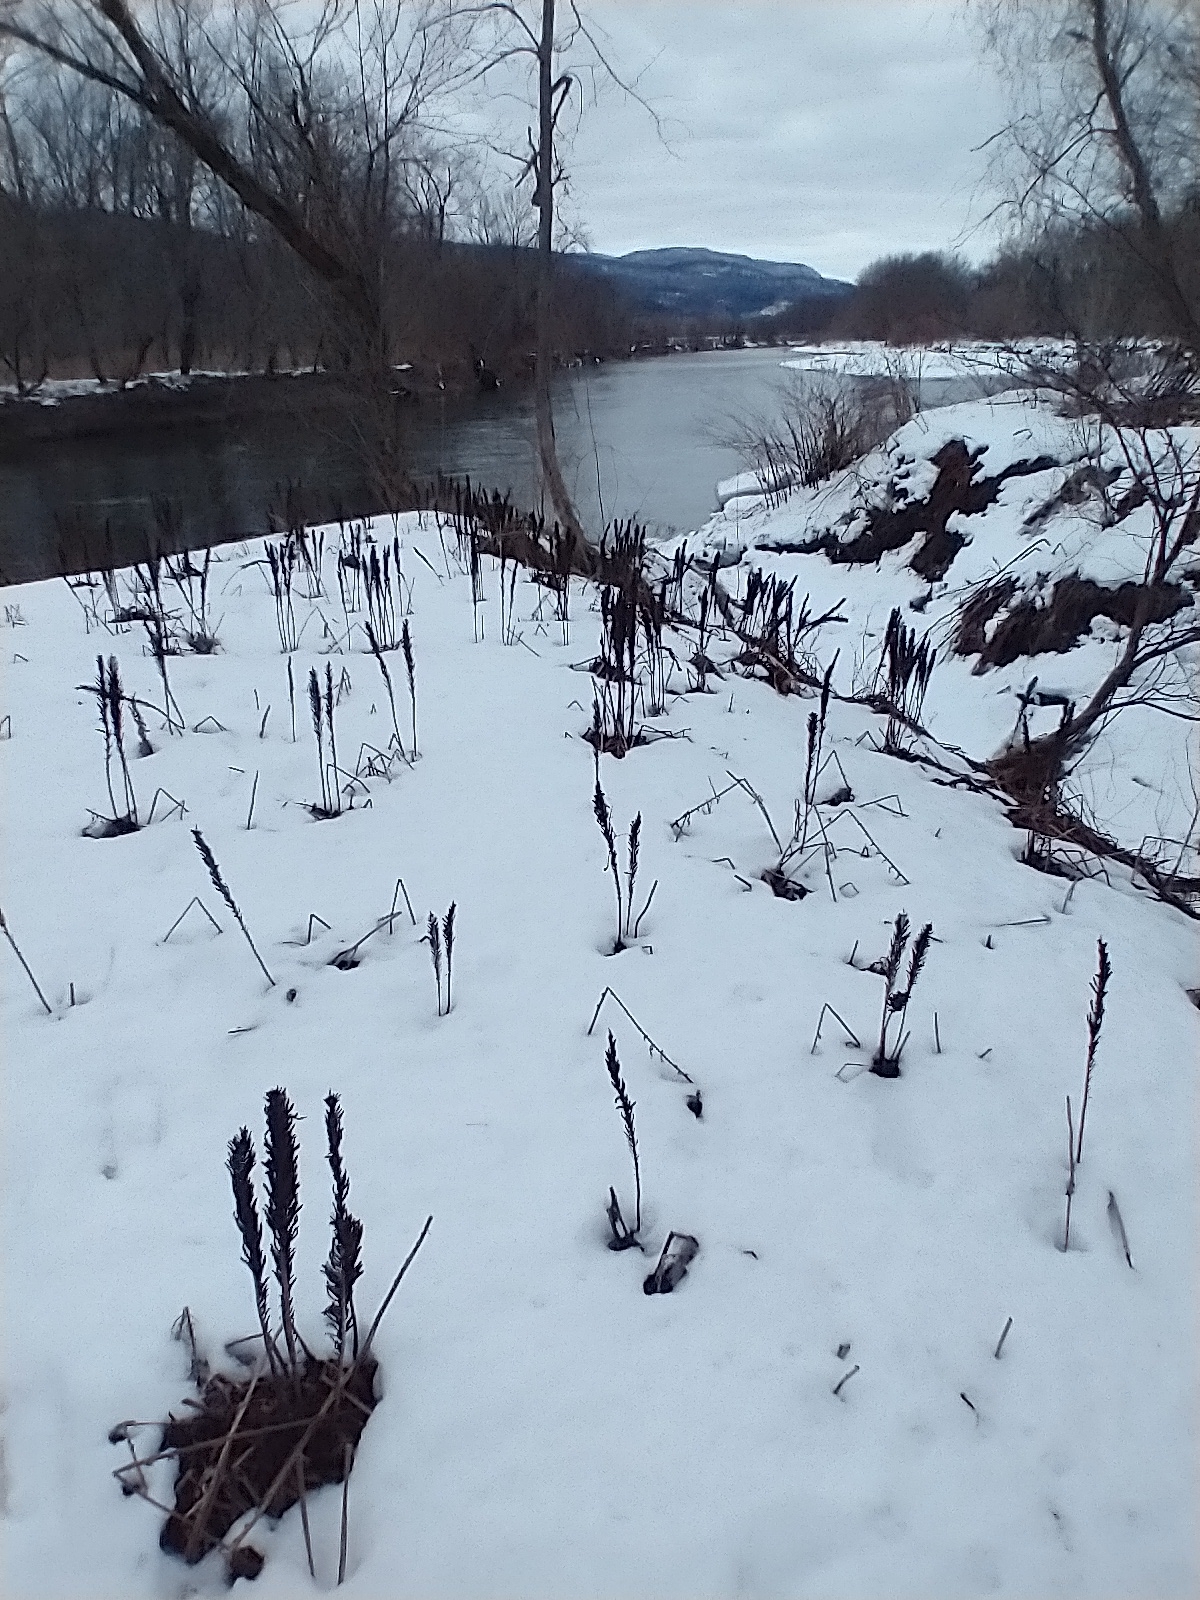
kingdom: Plantae
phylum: Tracheophyta
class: Polypodiopsida
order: Polypodiales
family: Onocleaceae
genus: Matteuccia
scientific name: Matteuccia struthiopteris
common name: Ostrich fern
